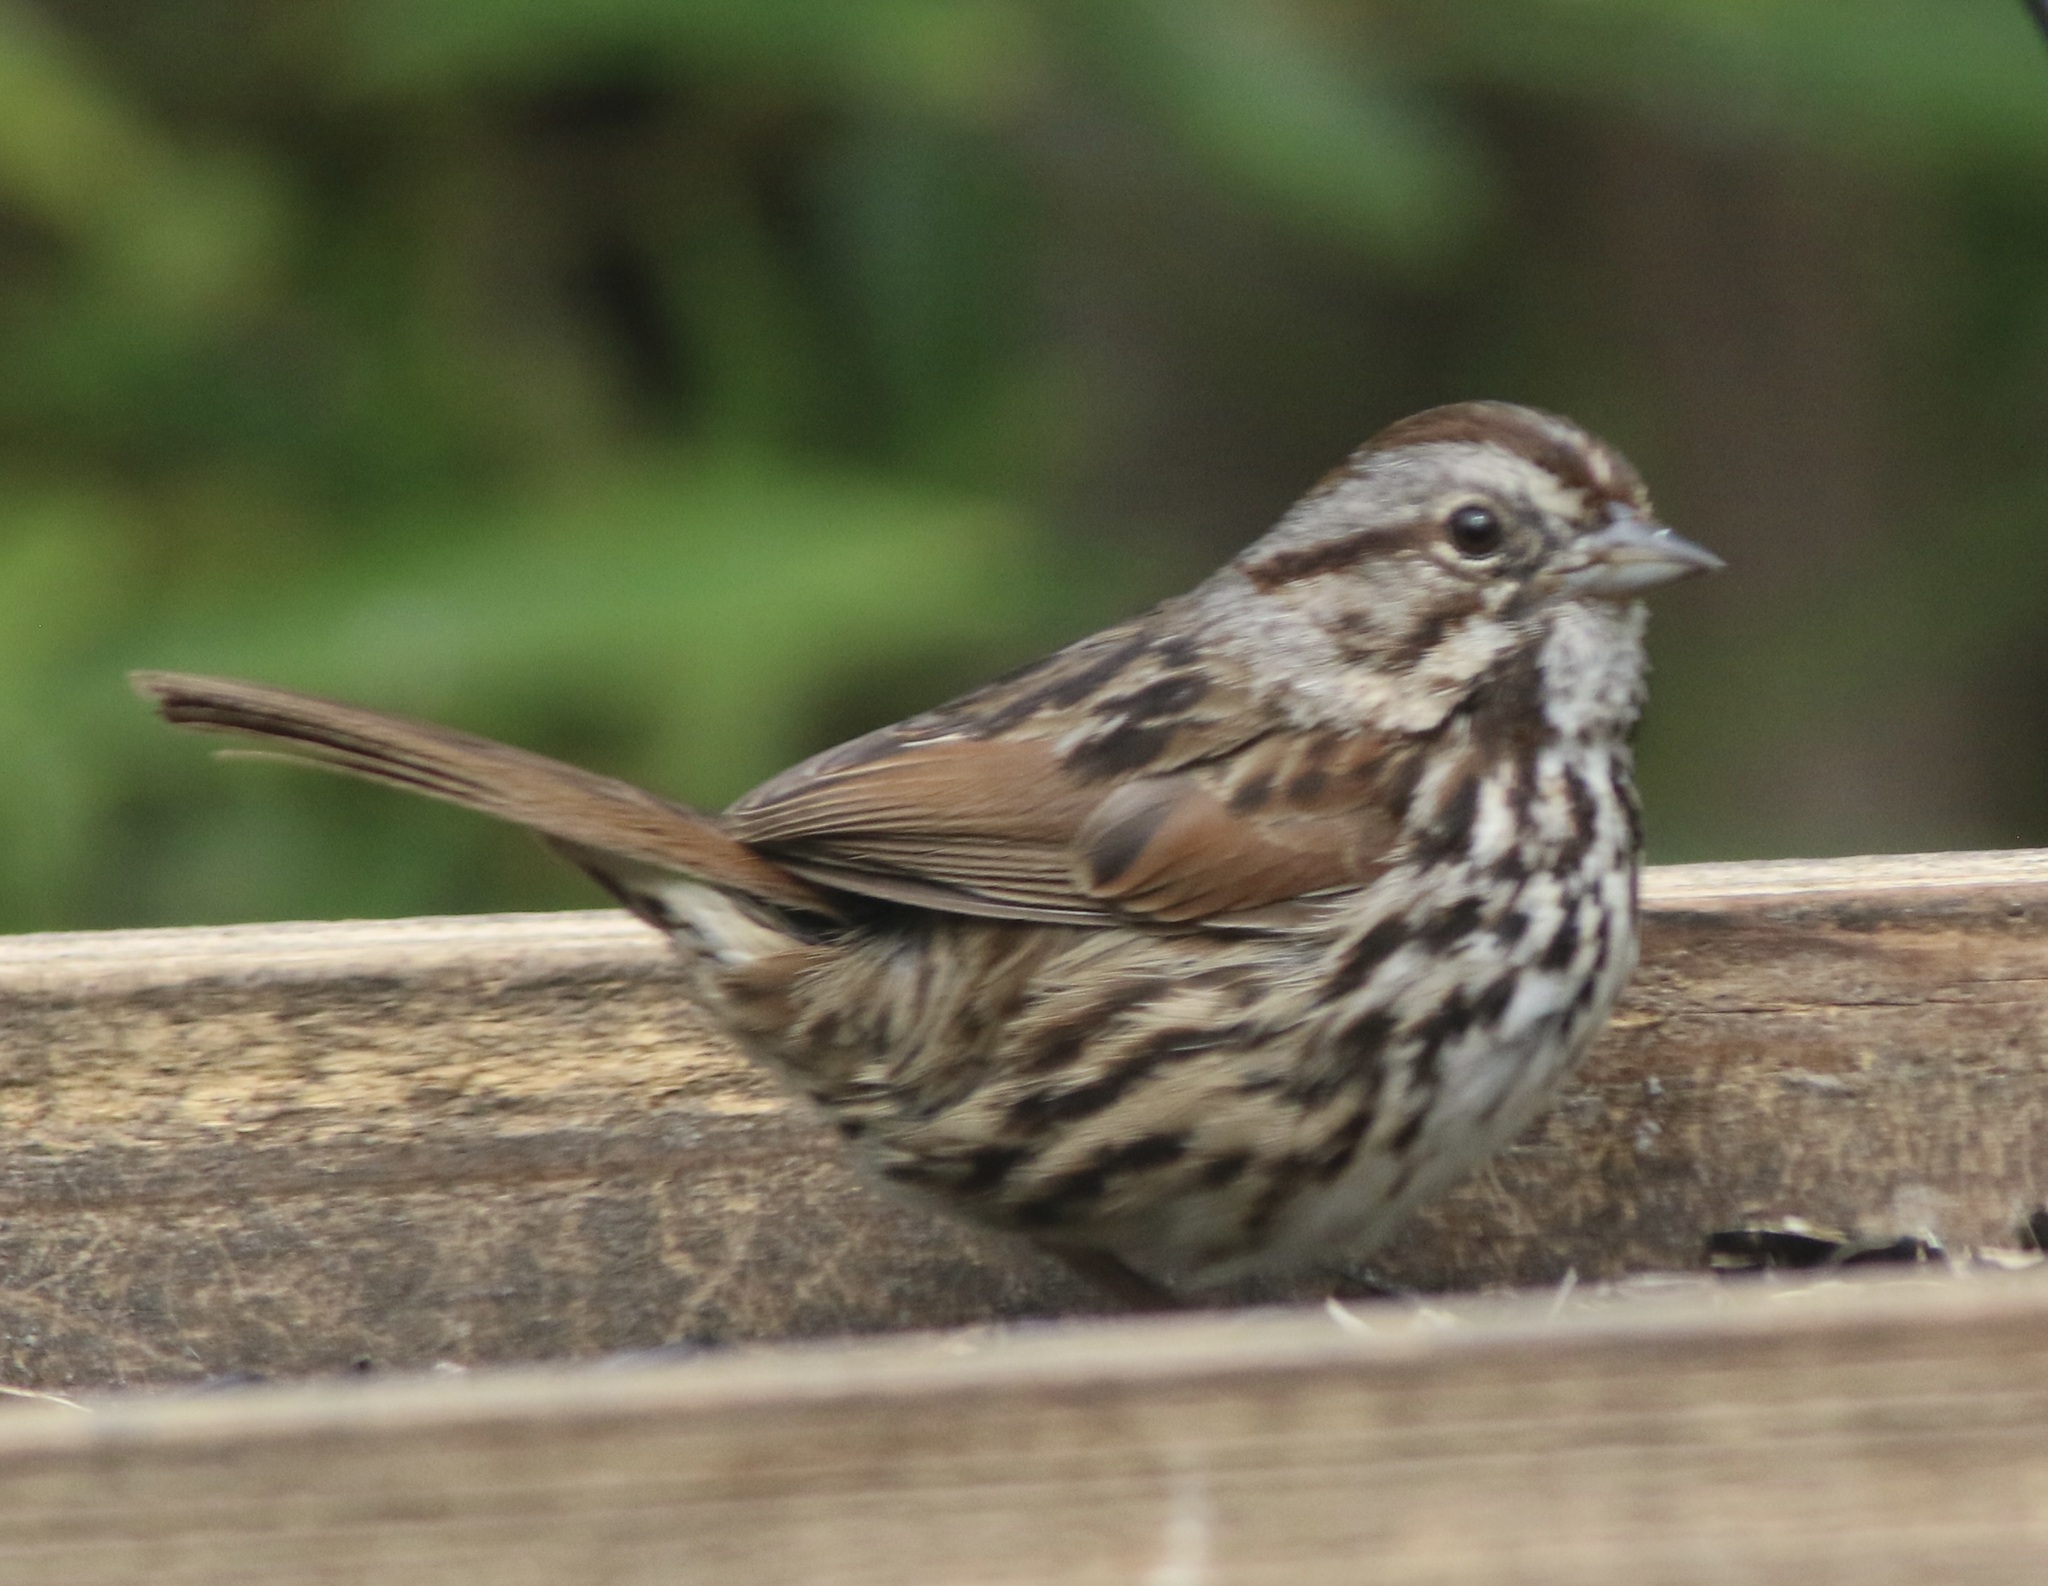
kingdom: Animalia
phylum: Chordata
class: Aves
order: Passeriformes
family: Passerellidae
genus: Melospiza
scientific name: Melospiza melodia
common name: Song sparrow
